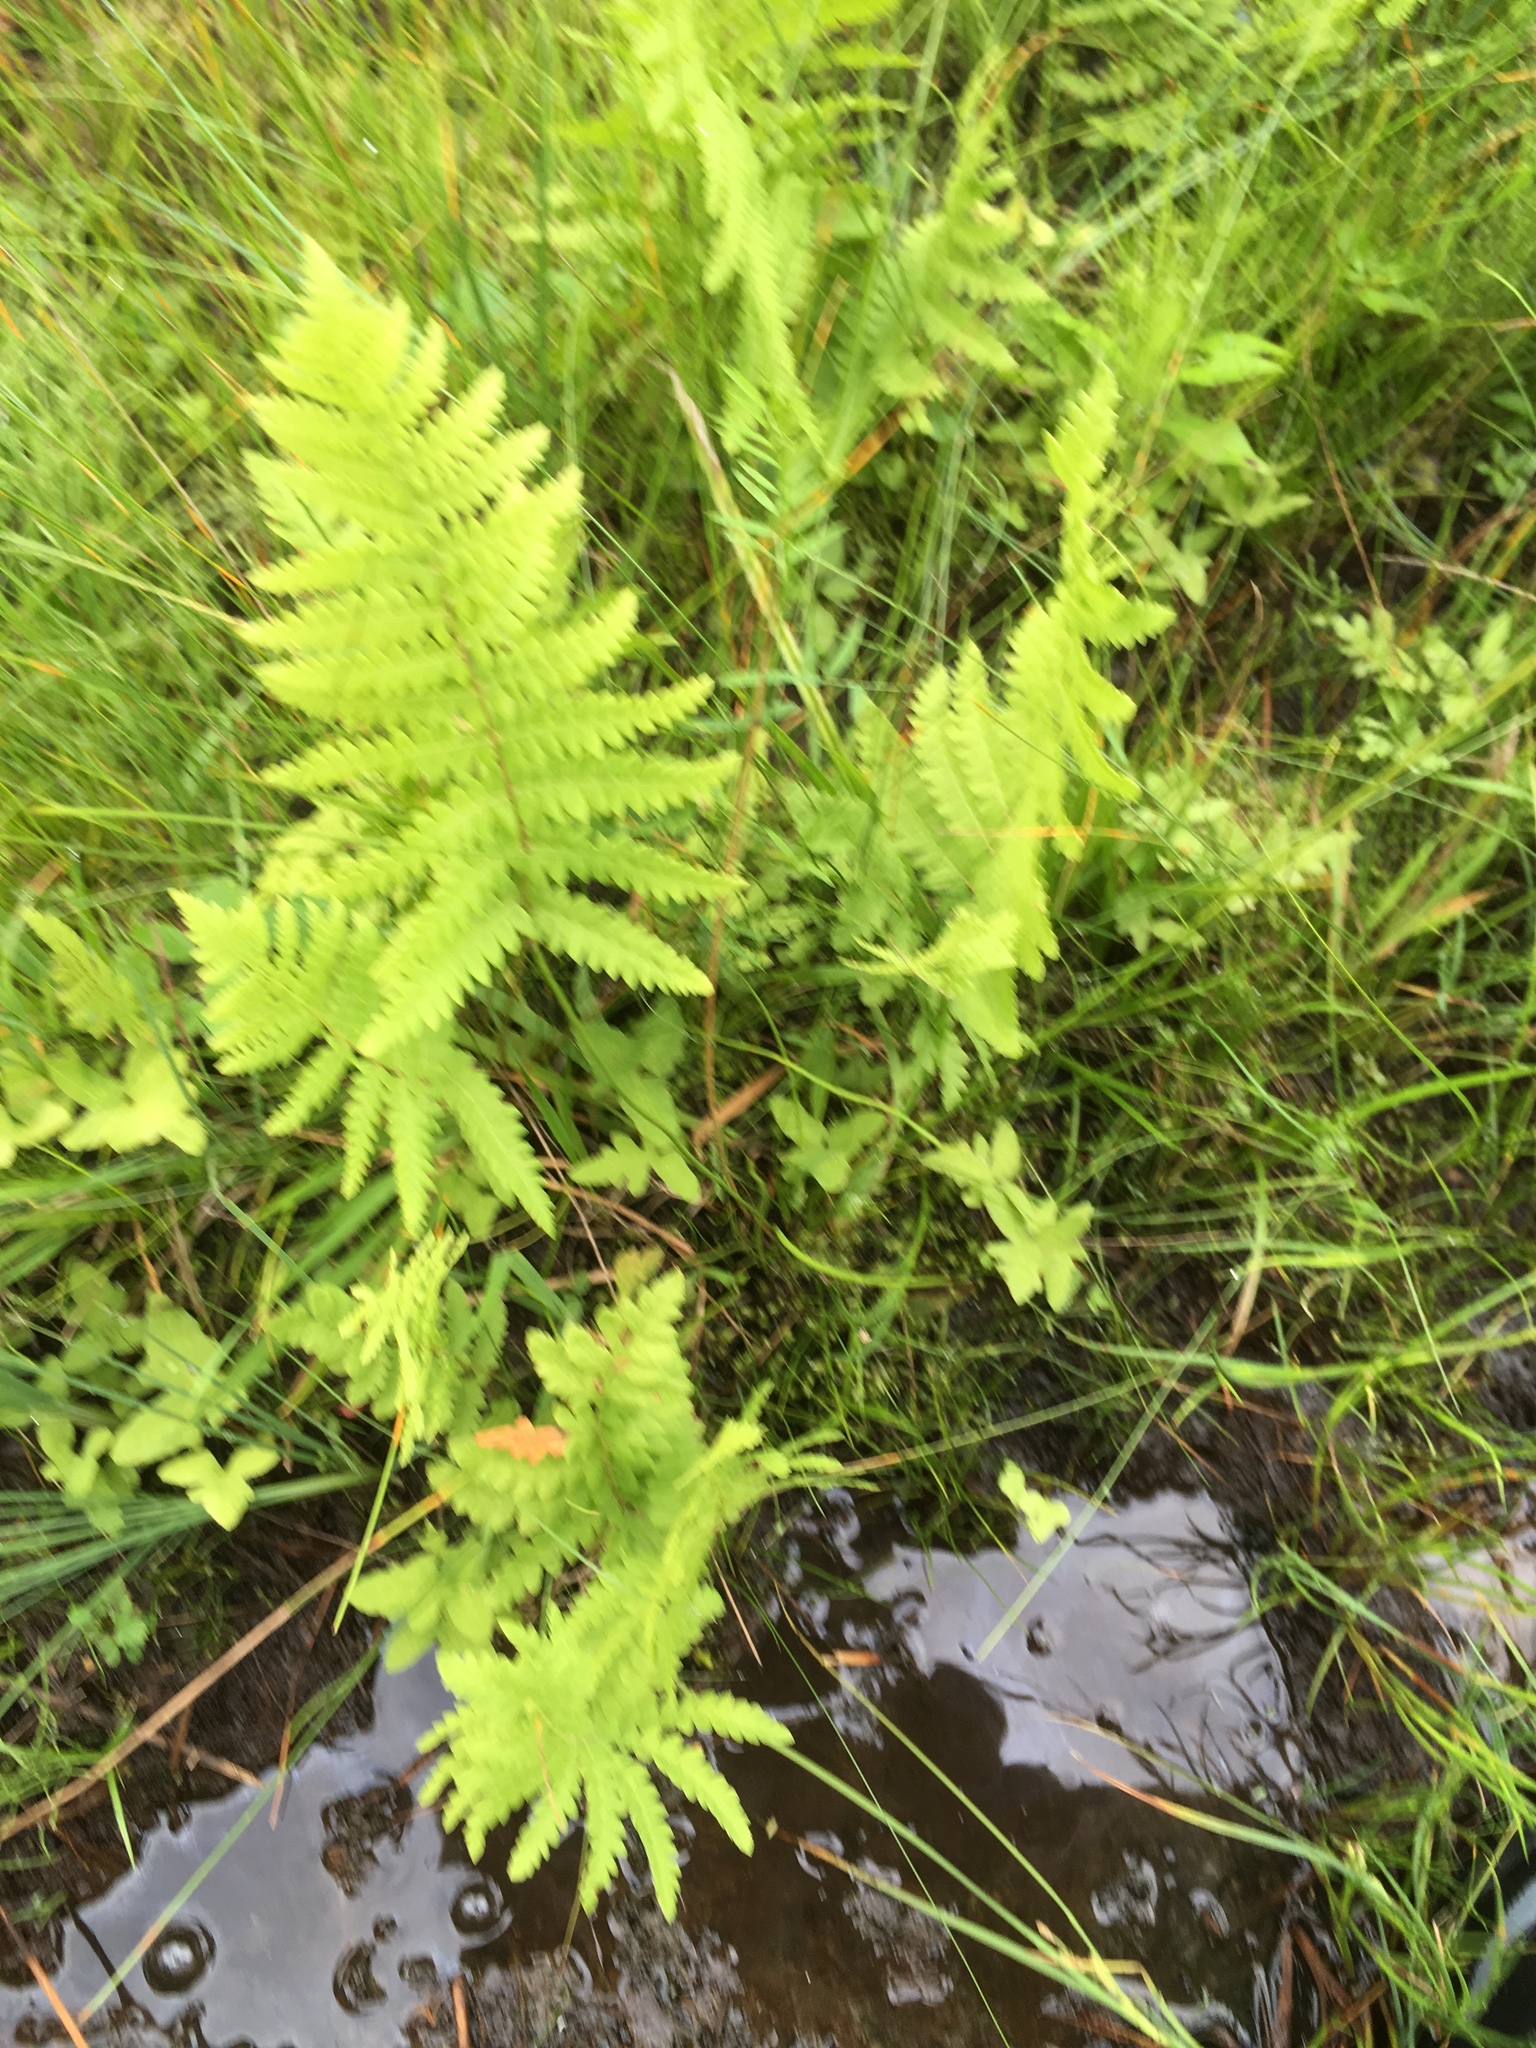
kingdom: Plantae
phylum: Tracheophyta
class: Polypodiopsida
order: Polypodiales
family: Thelypteridaceae
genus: Thelypteris
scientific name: Thelypteris palustris
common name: Marsh fern
